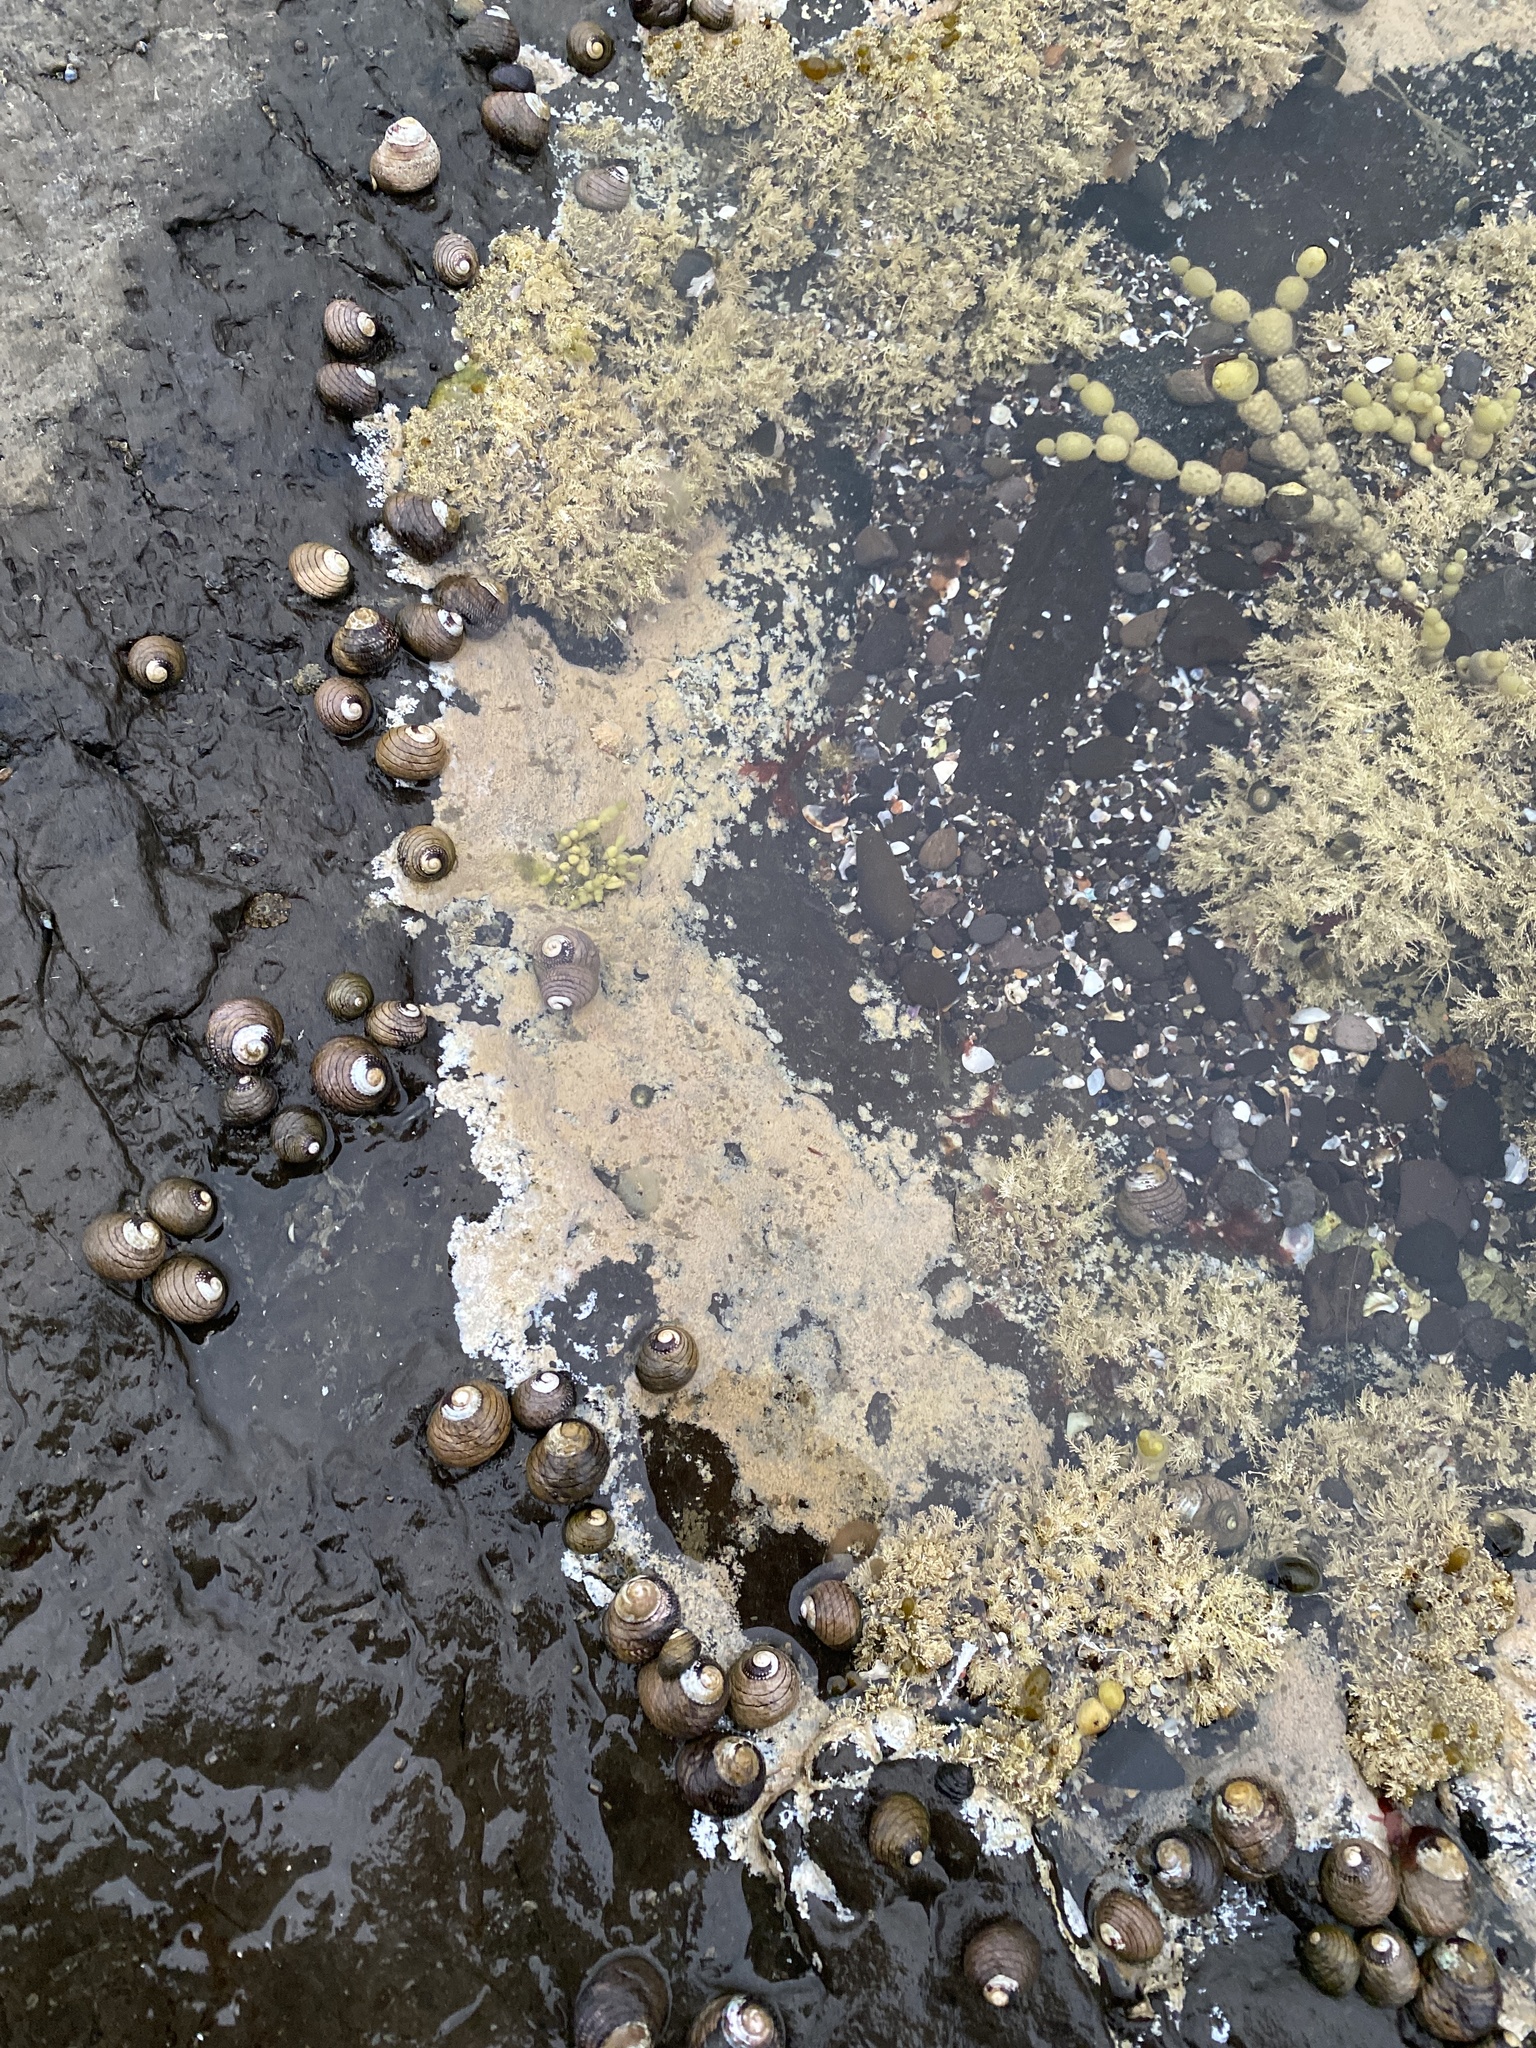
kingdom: Animalia
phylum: Mollusca
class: Gastropoda
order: Trochida
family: Trochidae
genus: Diloma
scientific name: Diloma aethiops
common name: Scorched monodont
